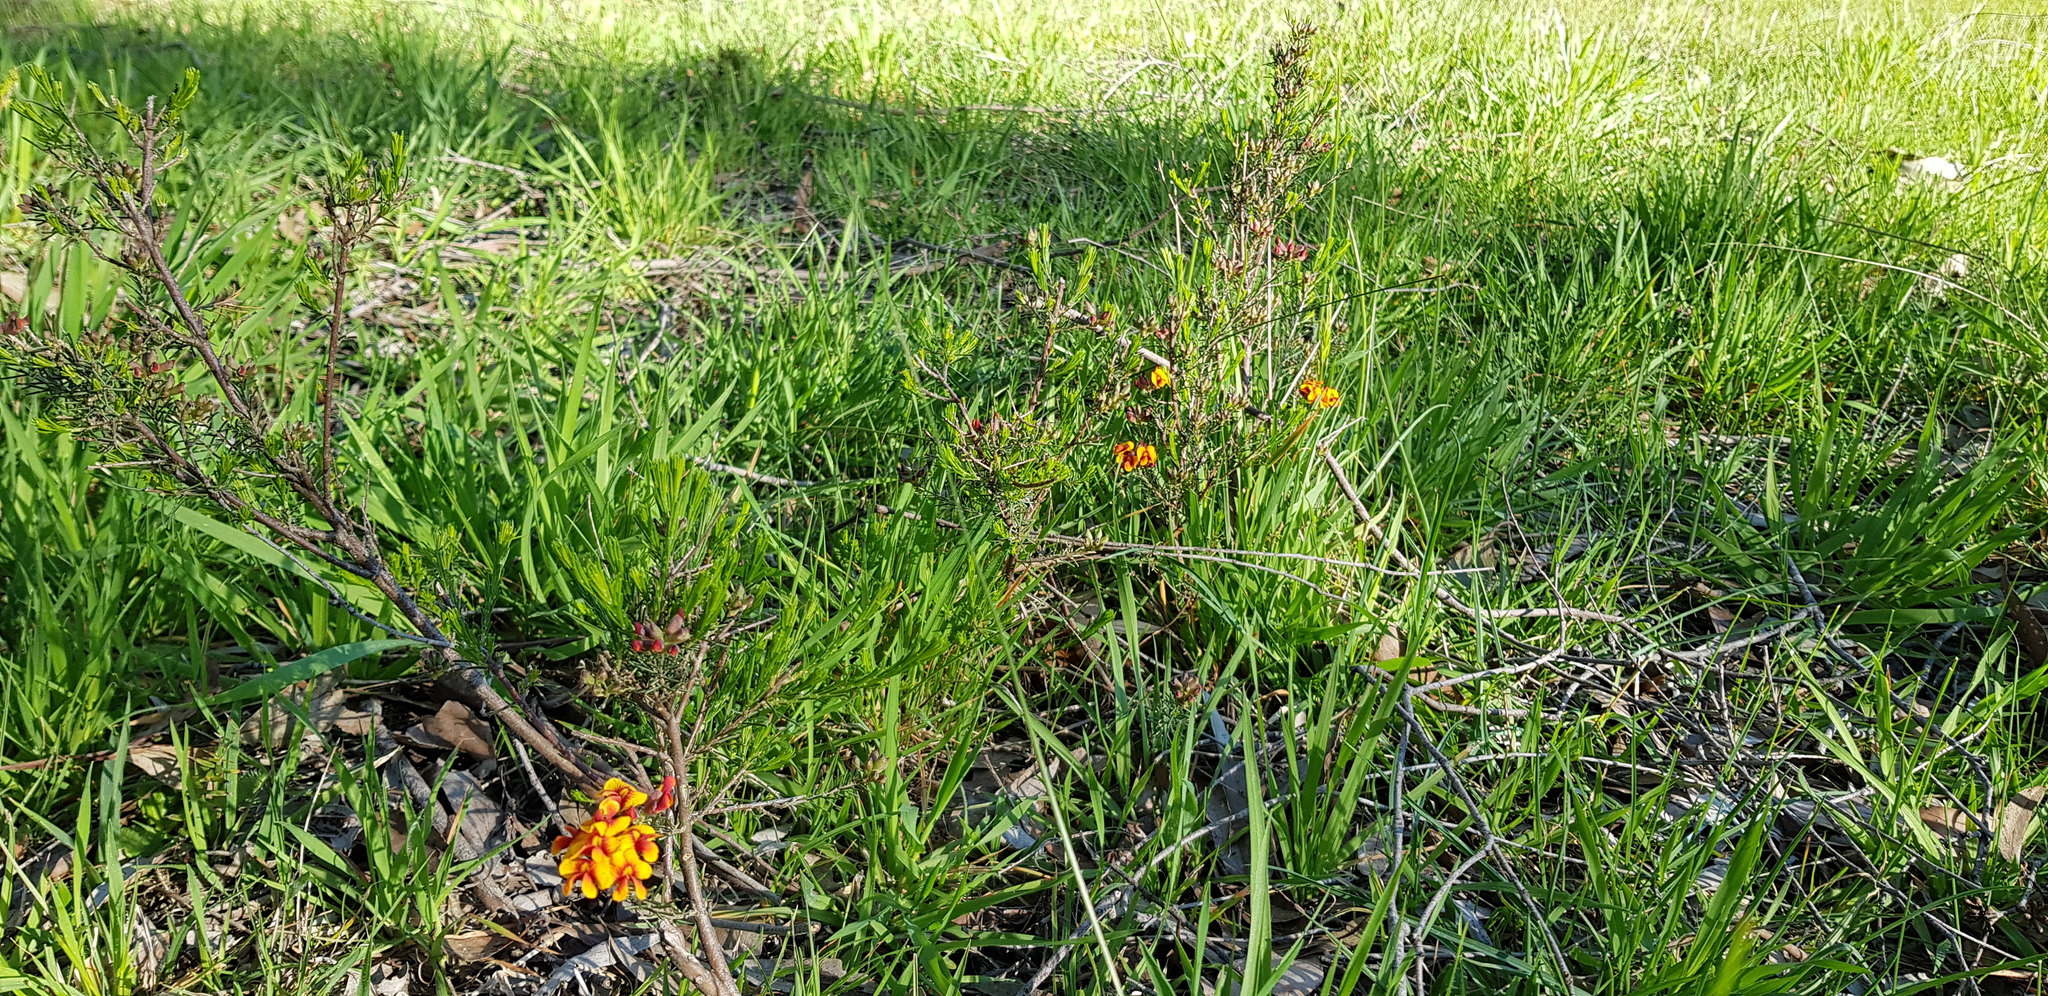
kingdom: Plantae
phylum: Tracheophyta
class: Magnoliopsida
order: Fabales
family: Fabaceae
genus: Dillwynia
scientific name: Dillwynia cinerascens
